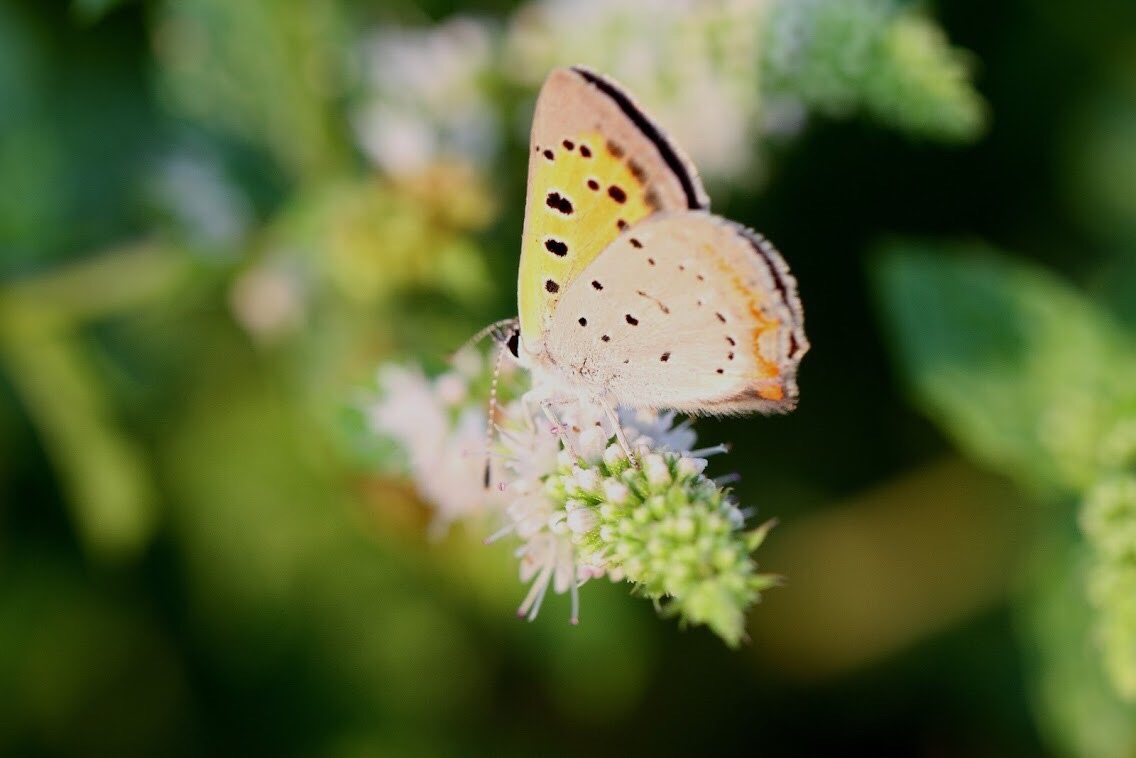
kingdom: Animalia
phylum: Arthropoda
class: Insecta
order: Lepidoptera
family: Lycaenidae
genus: Lycaena
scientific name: Lycaena hypophlaeas
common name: American copper
